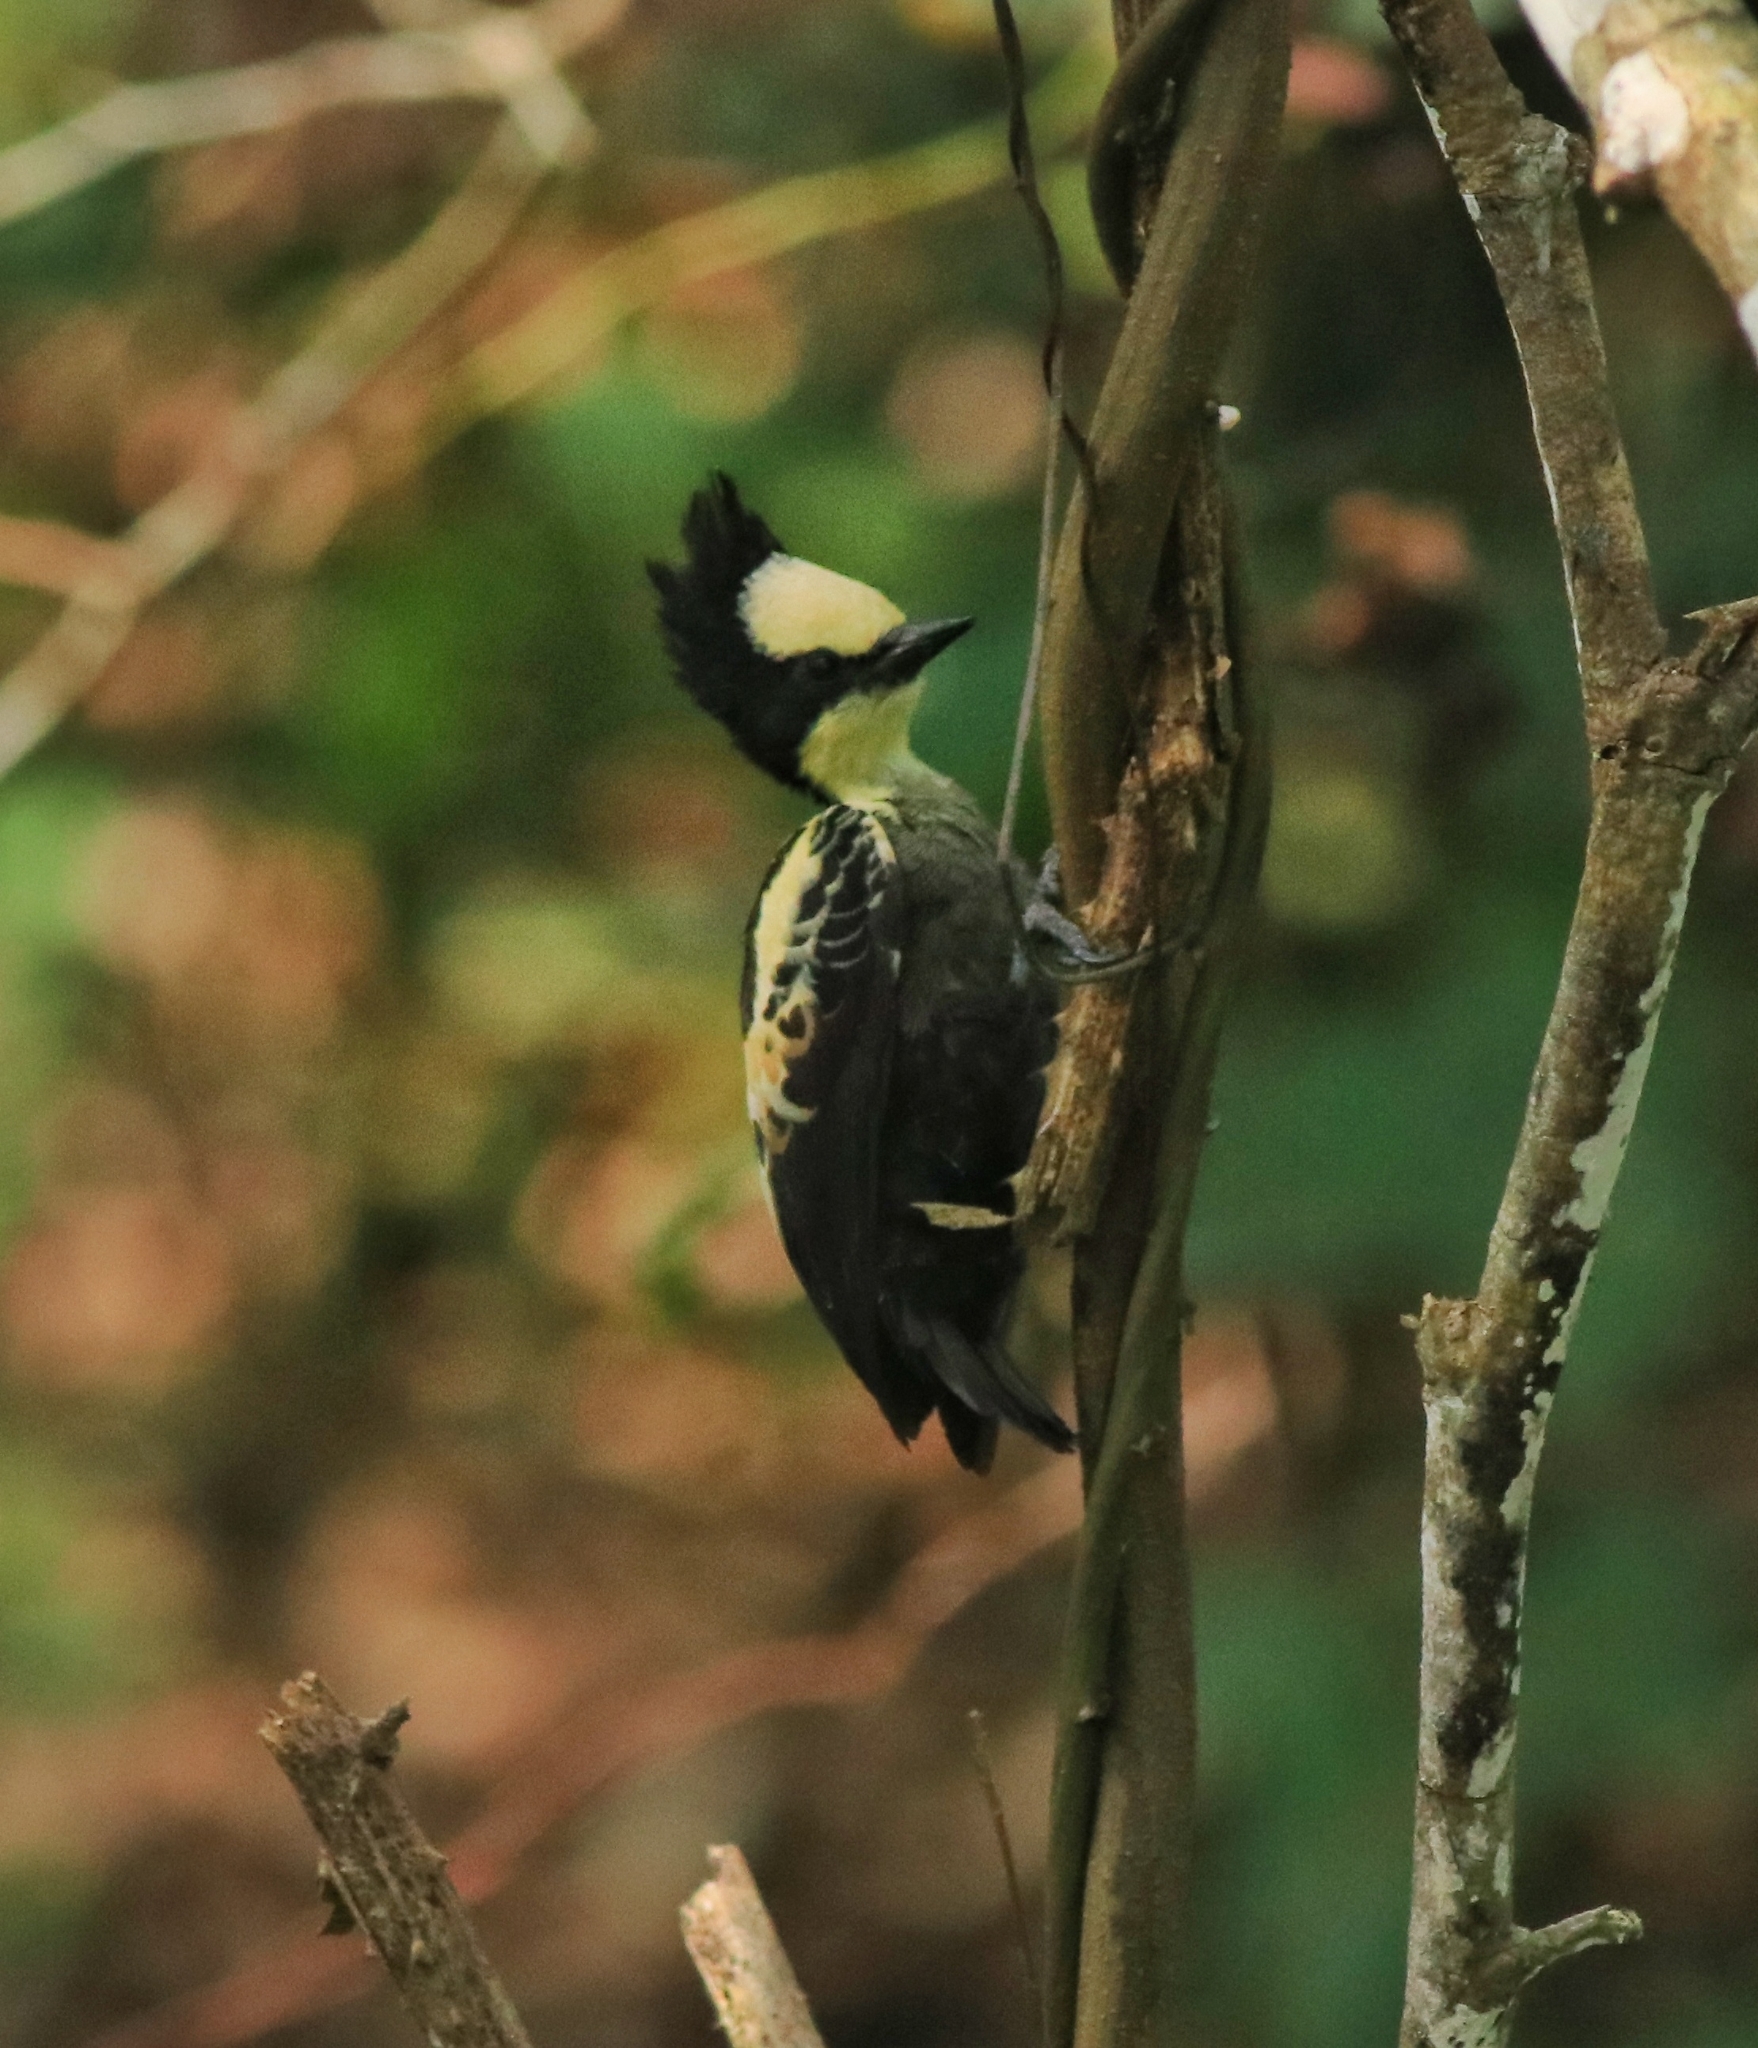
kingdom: Animalia
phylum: Chordata
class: Aves
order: Piciformes
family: Picidae
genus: Hemicircus
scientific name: Hemicircus canente
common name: Heart-spotted woodpecker
